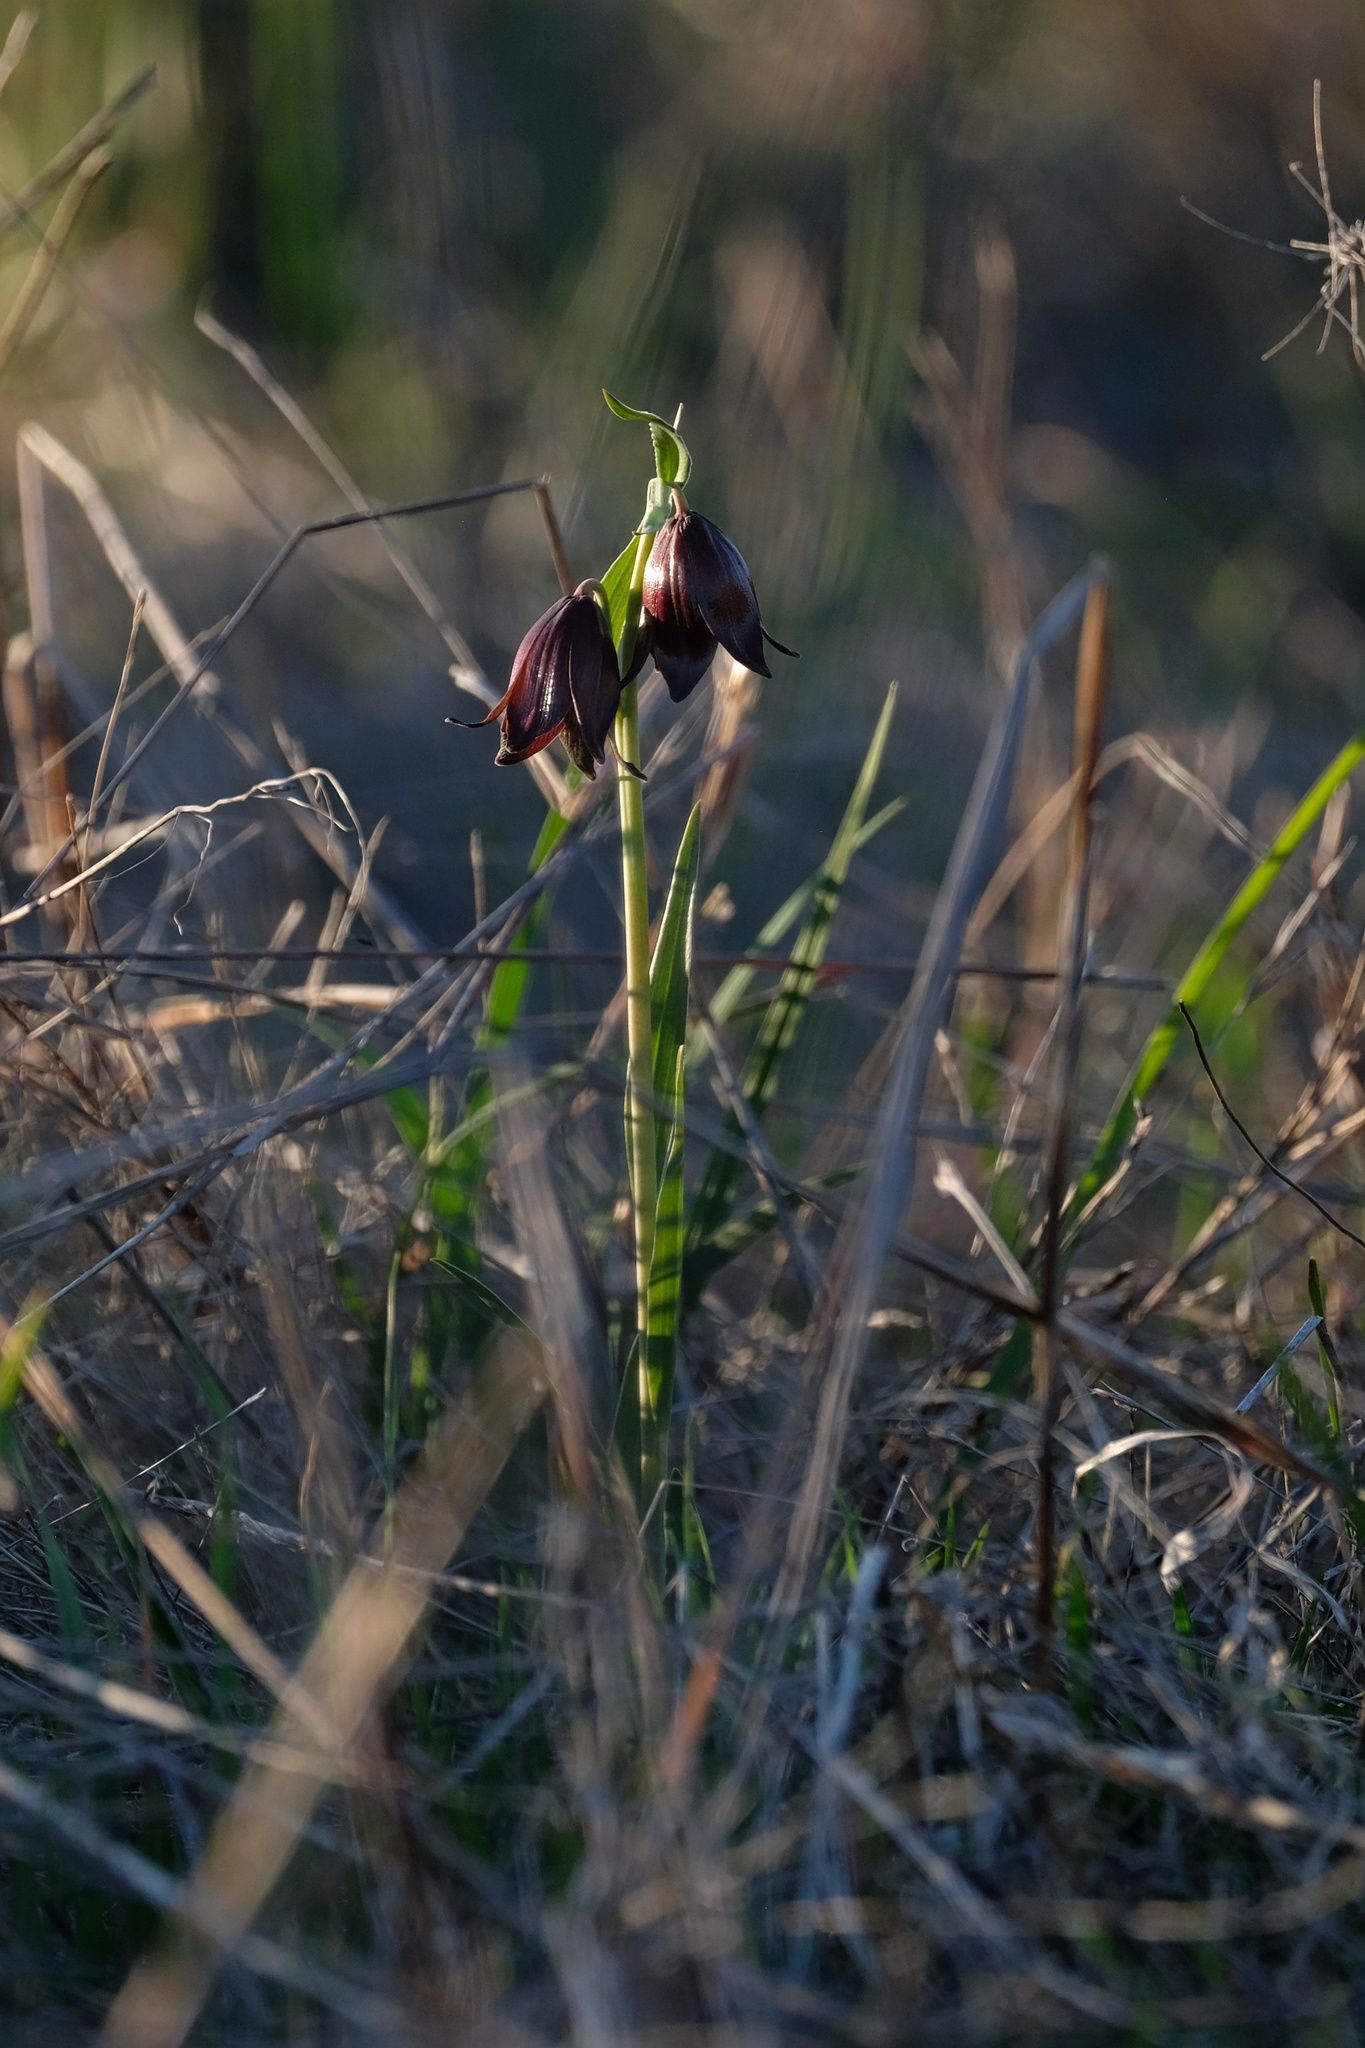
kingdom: Plantae
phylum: Tracheophyta
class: Liliopsida
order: Liliales
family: Liliaceae
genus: Fritillaria
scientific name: Fritillaria biflora
